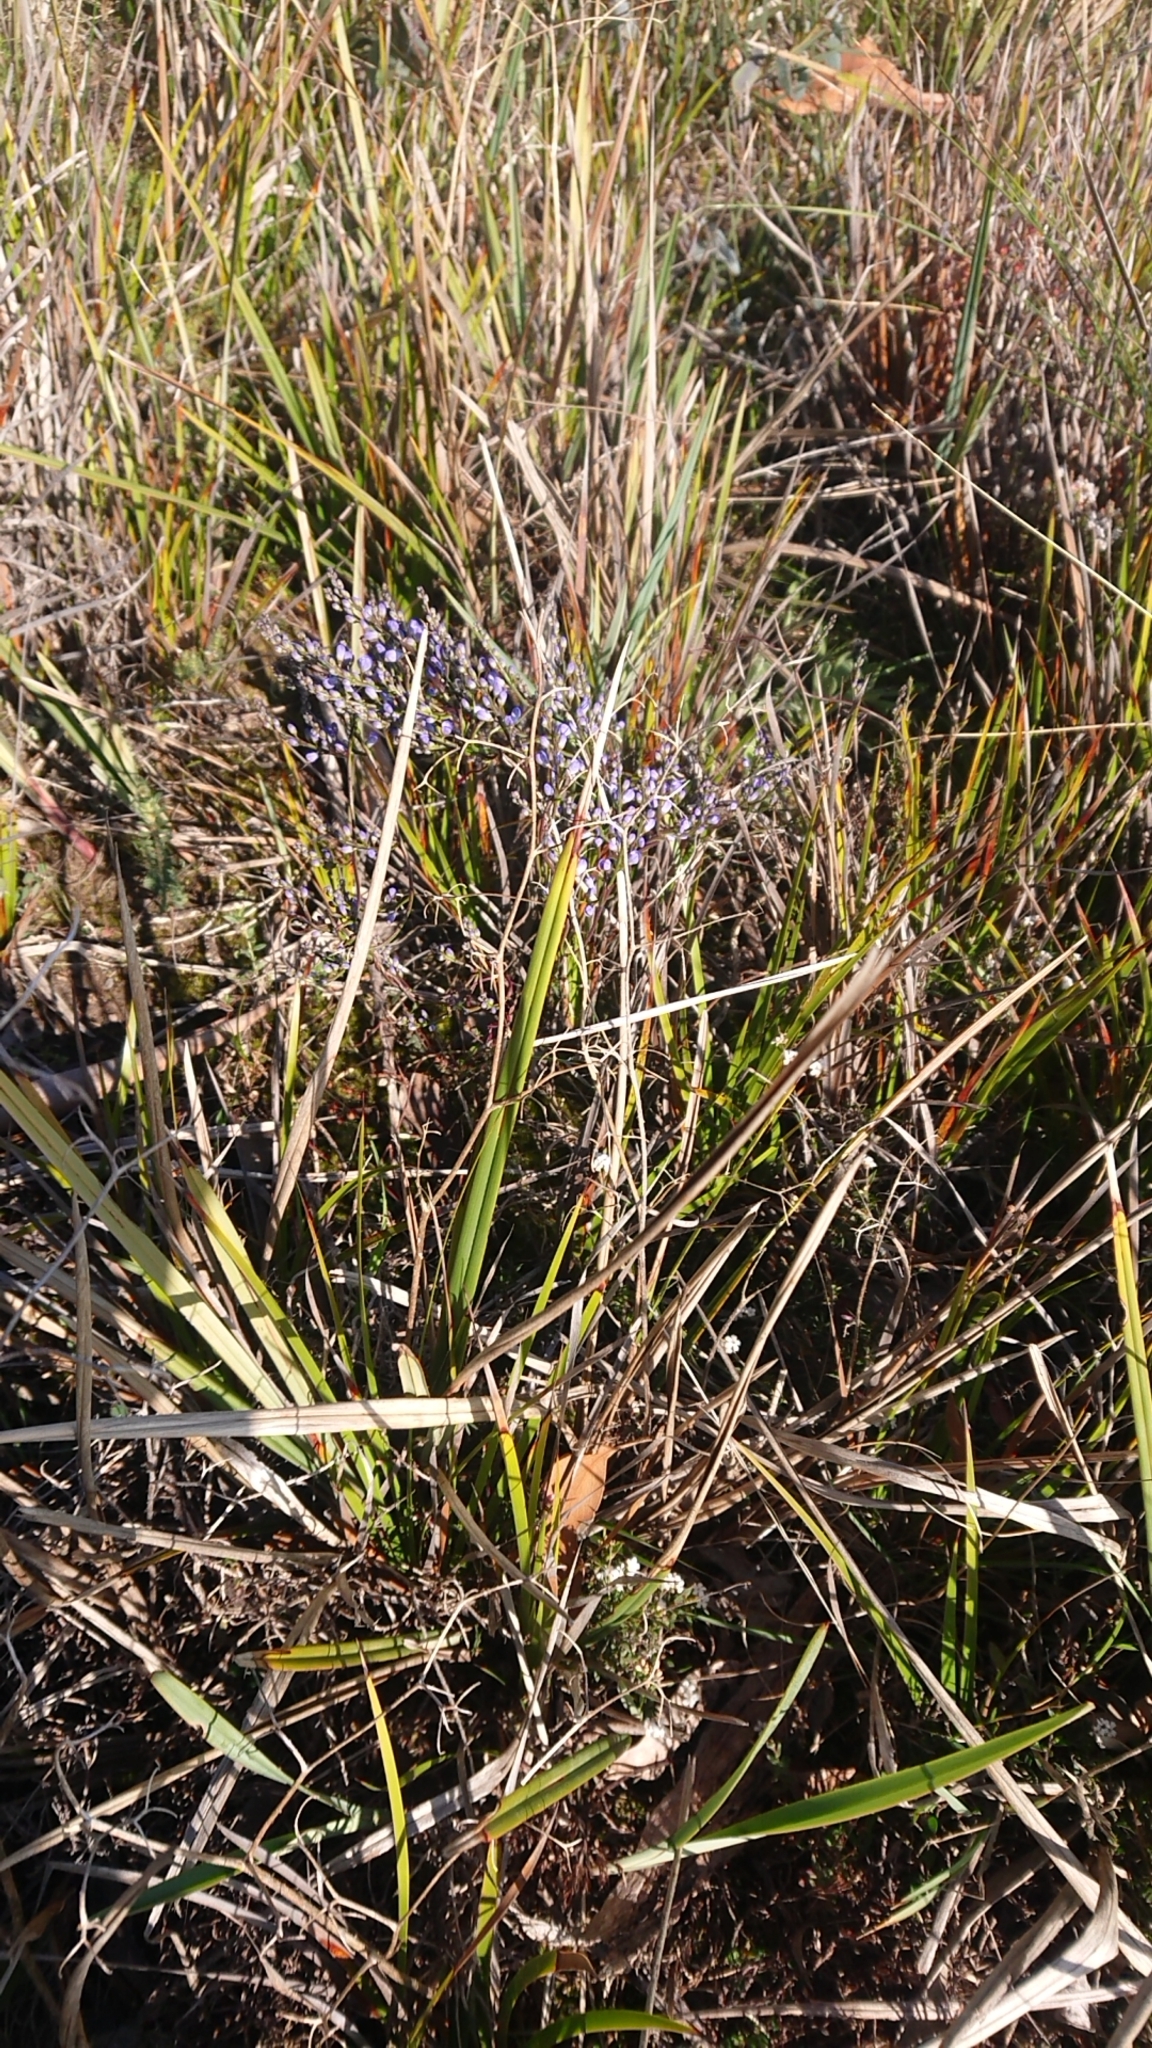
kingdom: Plantae
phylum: Tracheophyta
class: Magnoliopsida
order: Fabales
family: Polygalaceae
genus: Comesperma
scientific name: Comesperma volubile
